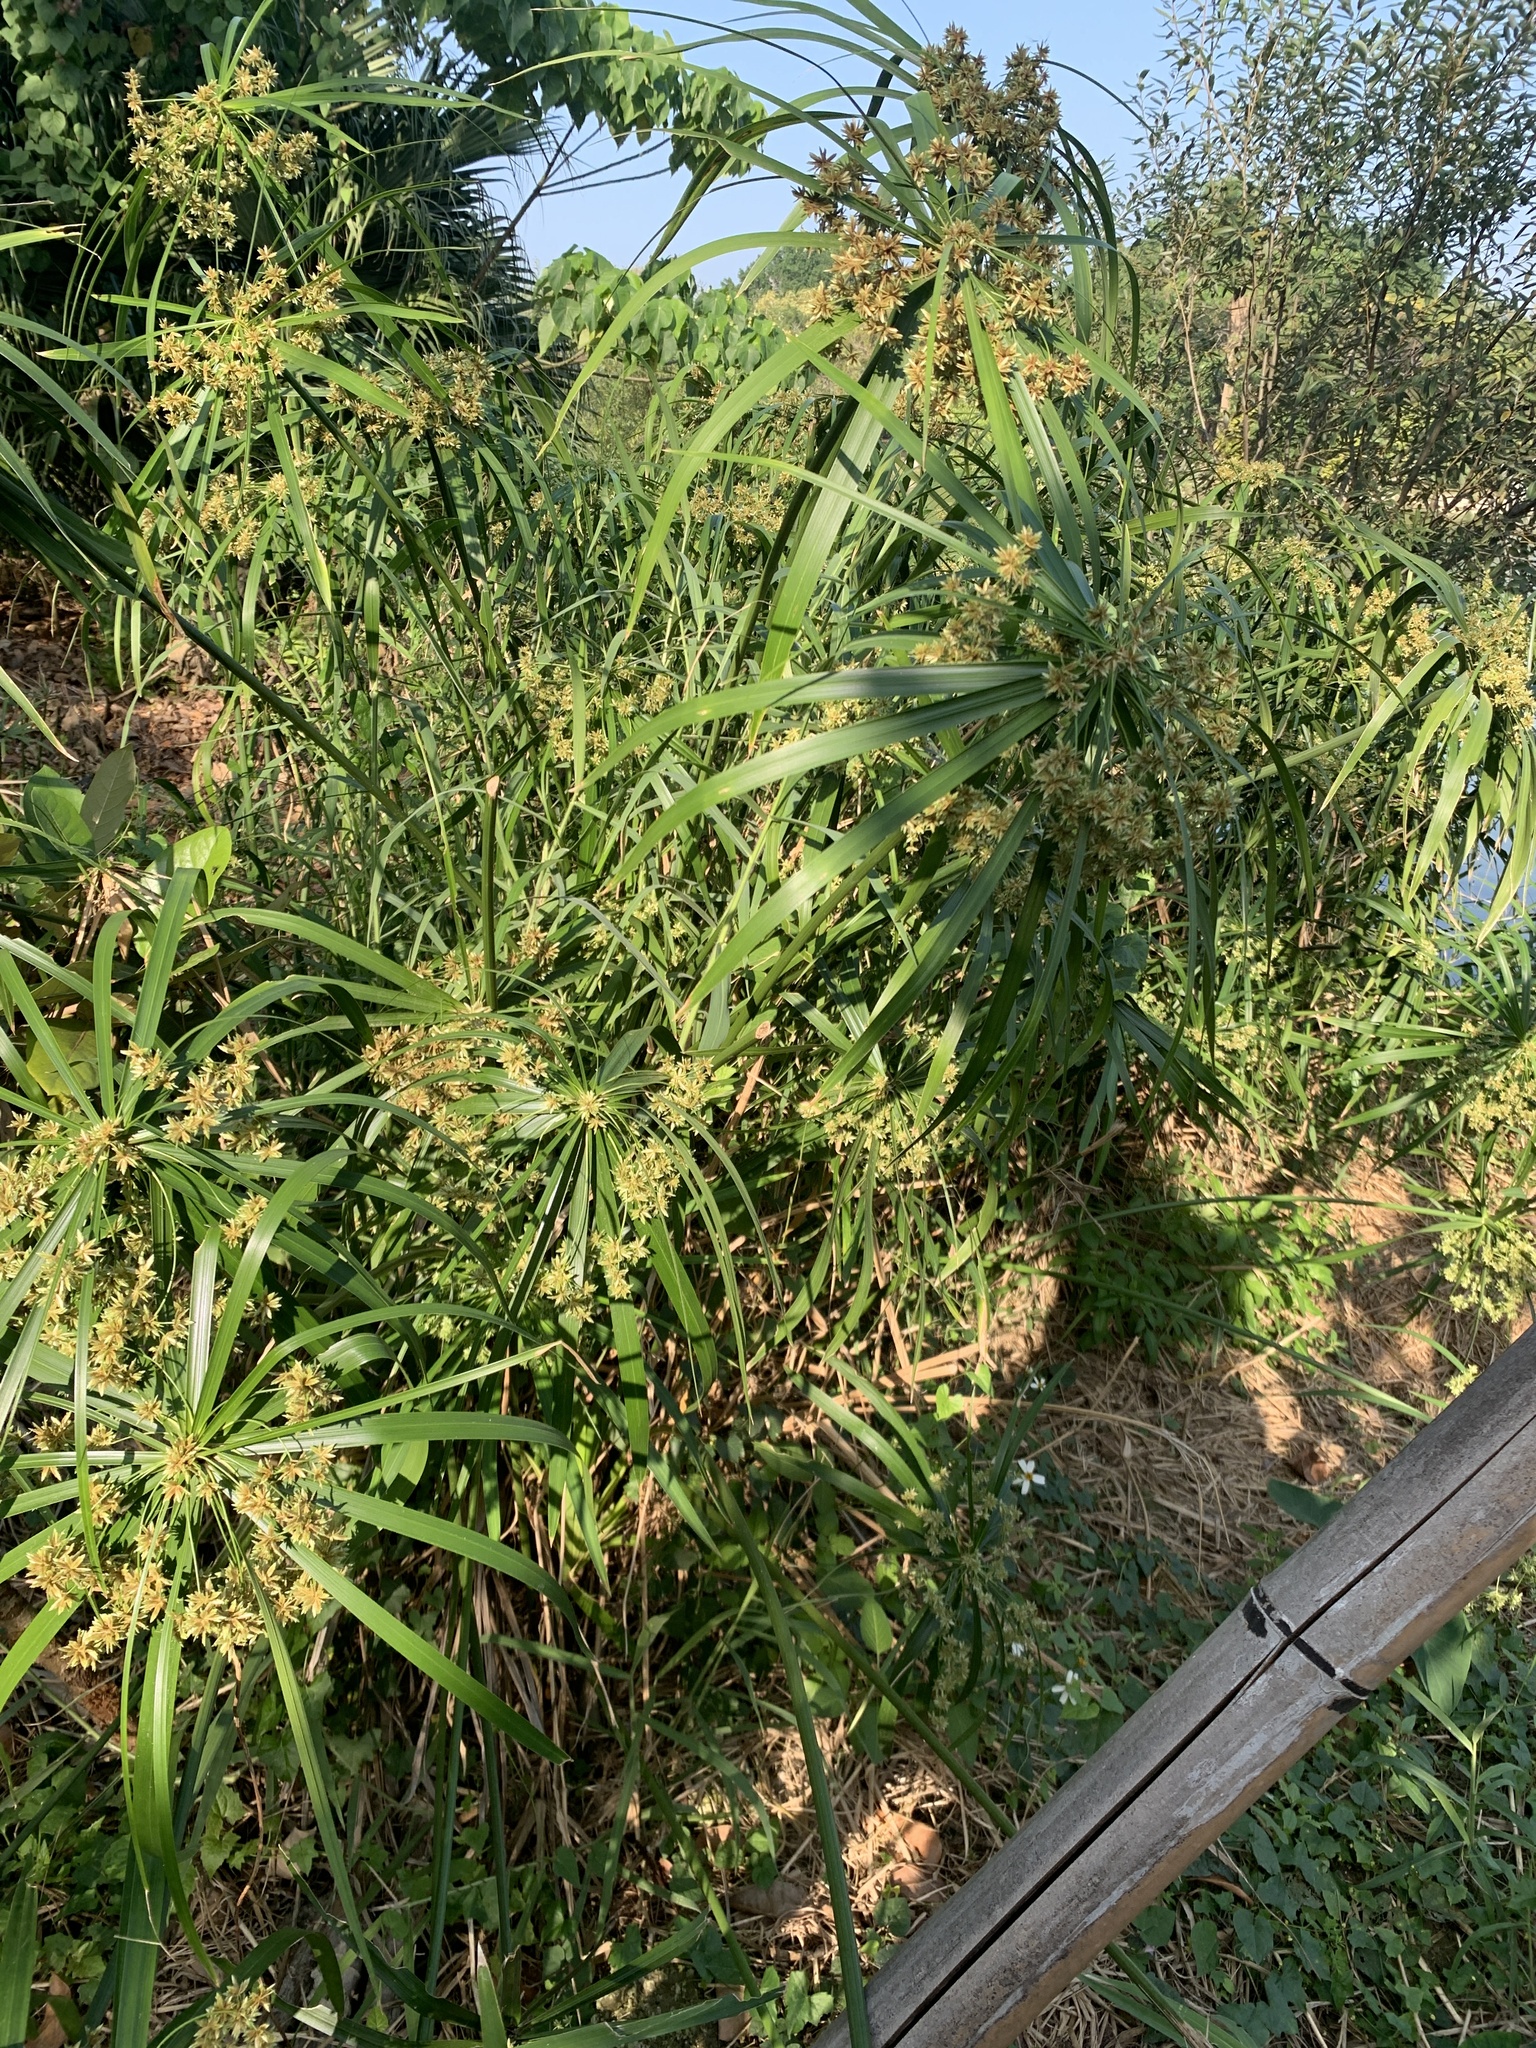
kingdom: Plantae
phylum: Tracheophyta
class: Liliopsida
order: Poales
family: Cyperaceae
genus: Cyperus
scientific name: Cyperus alternifolius
